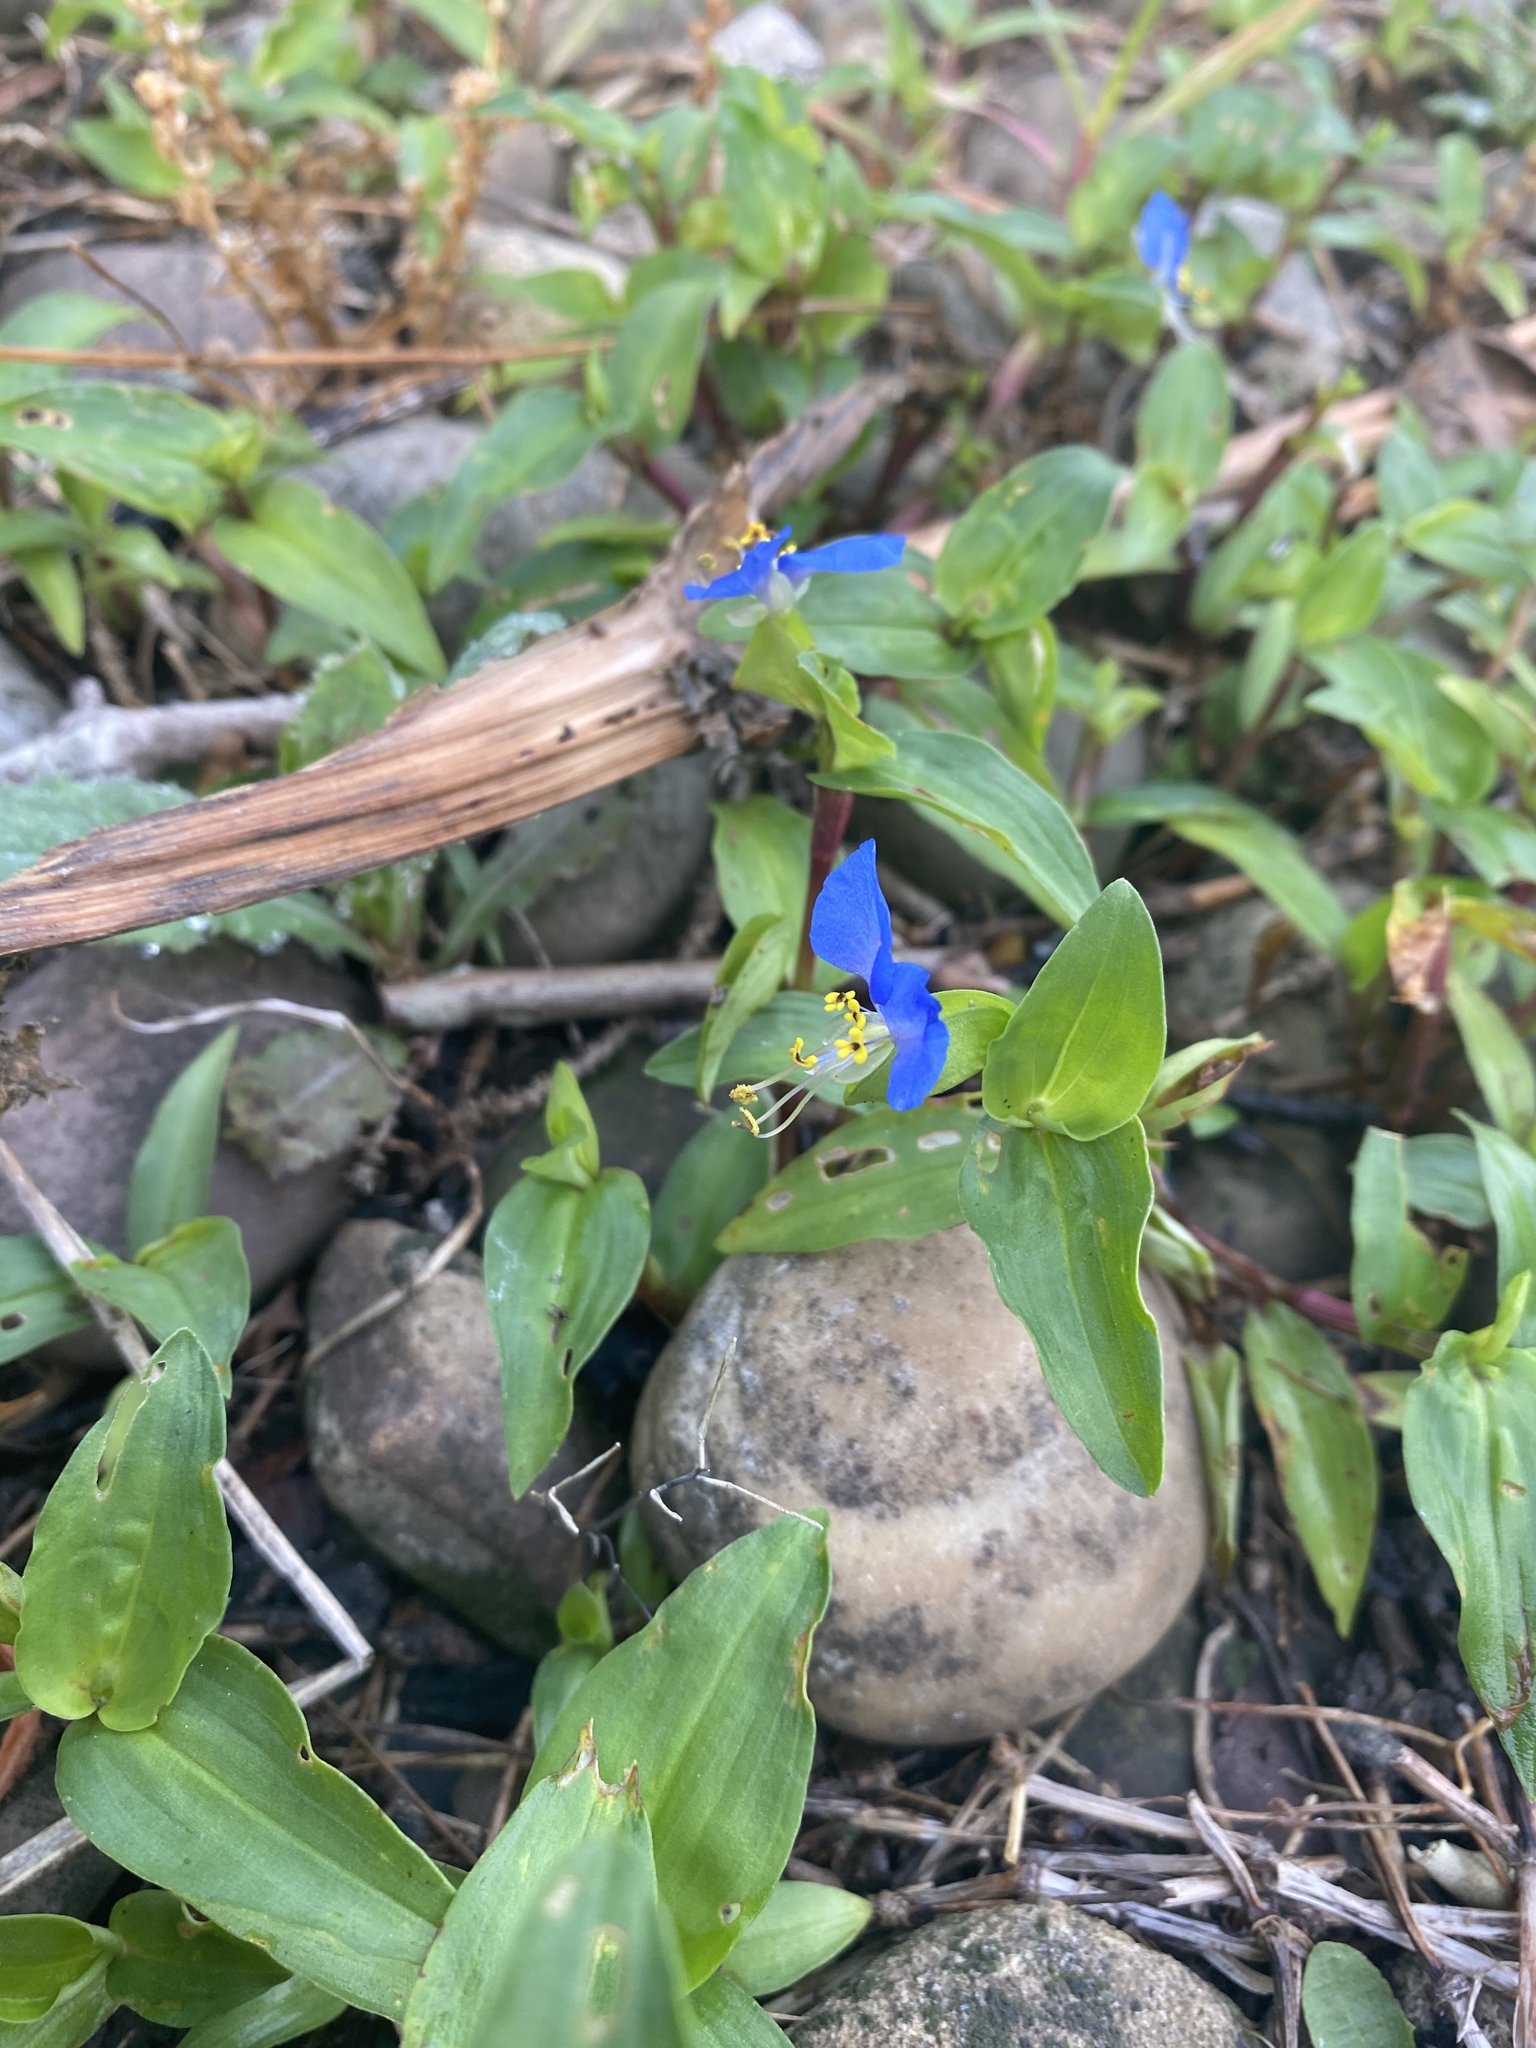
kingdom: Plantae
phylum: Tracheophyta
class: Liliopsida
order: Commelinales
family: Commelinaceae
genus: Commelina
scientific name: Commelina communis
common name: Asiatic dayflower
